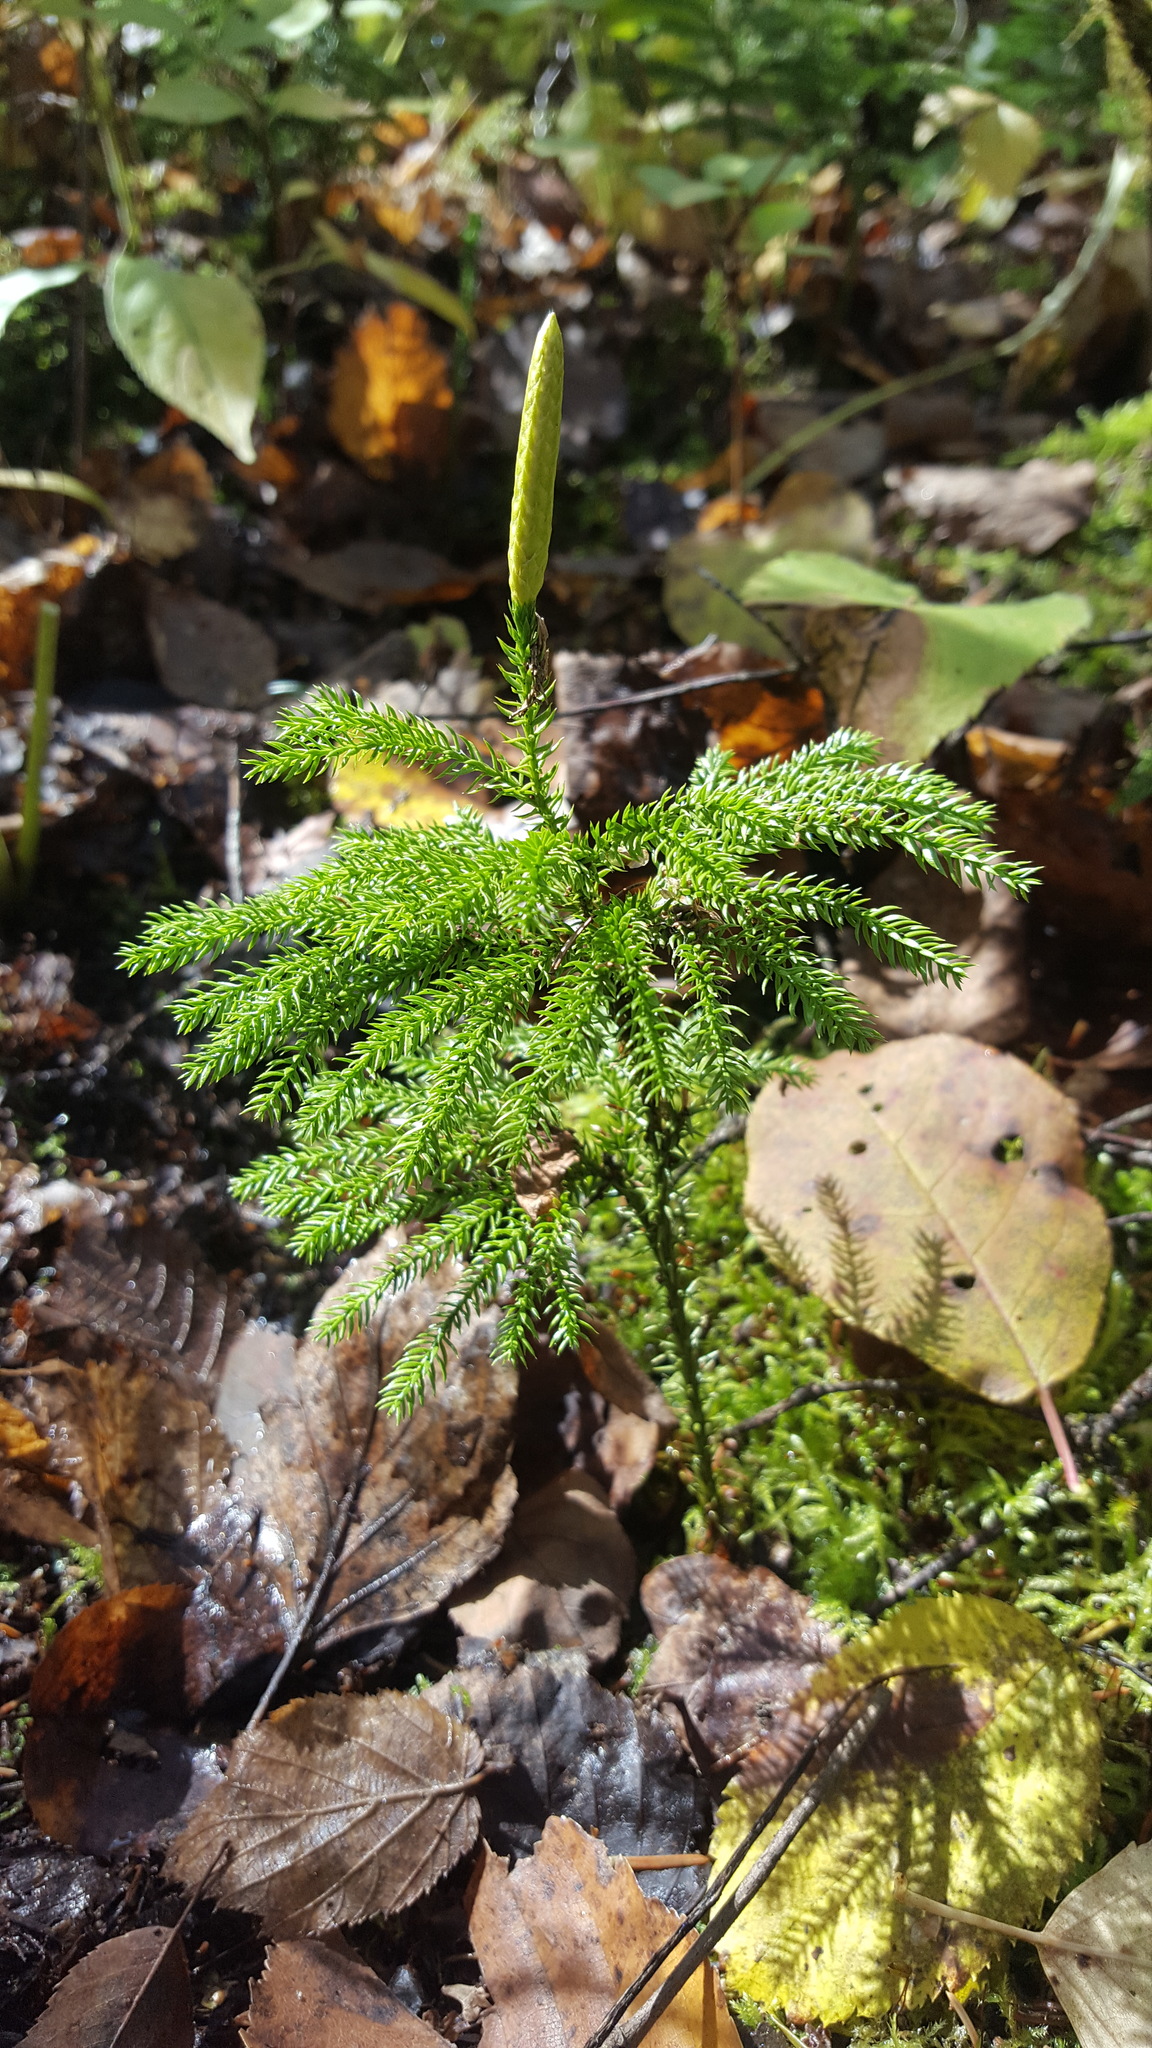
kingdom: Plantae
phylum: Tracheophyta
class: Lycopodiopsida
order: Lycopodiales
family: Lycopodiaceae
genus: Dendrolycopodium
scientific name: Dendrolycopodium dendroideum
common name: Northern tree-clubmoss
